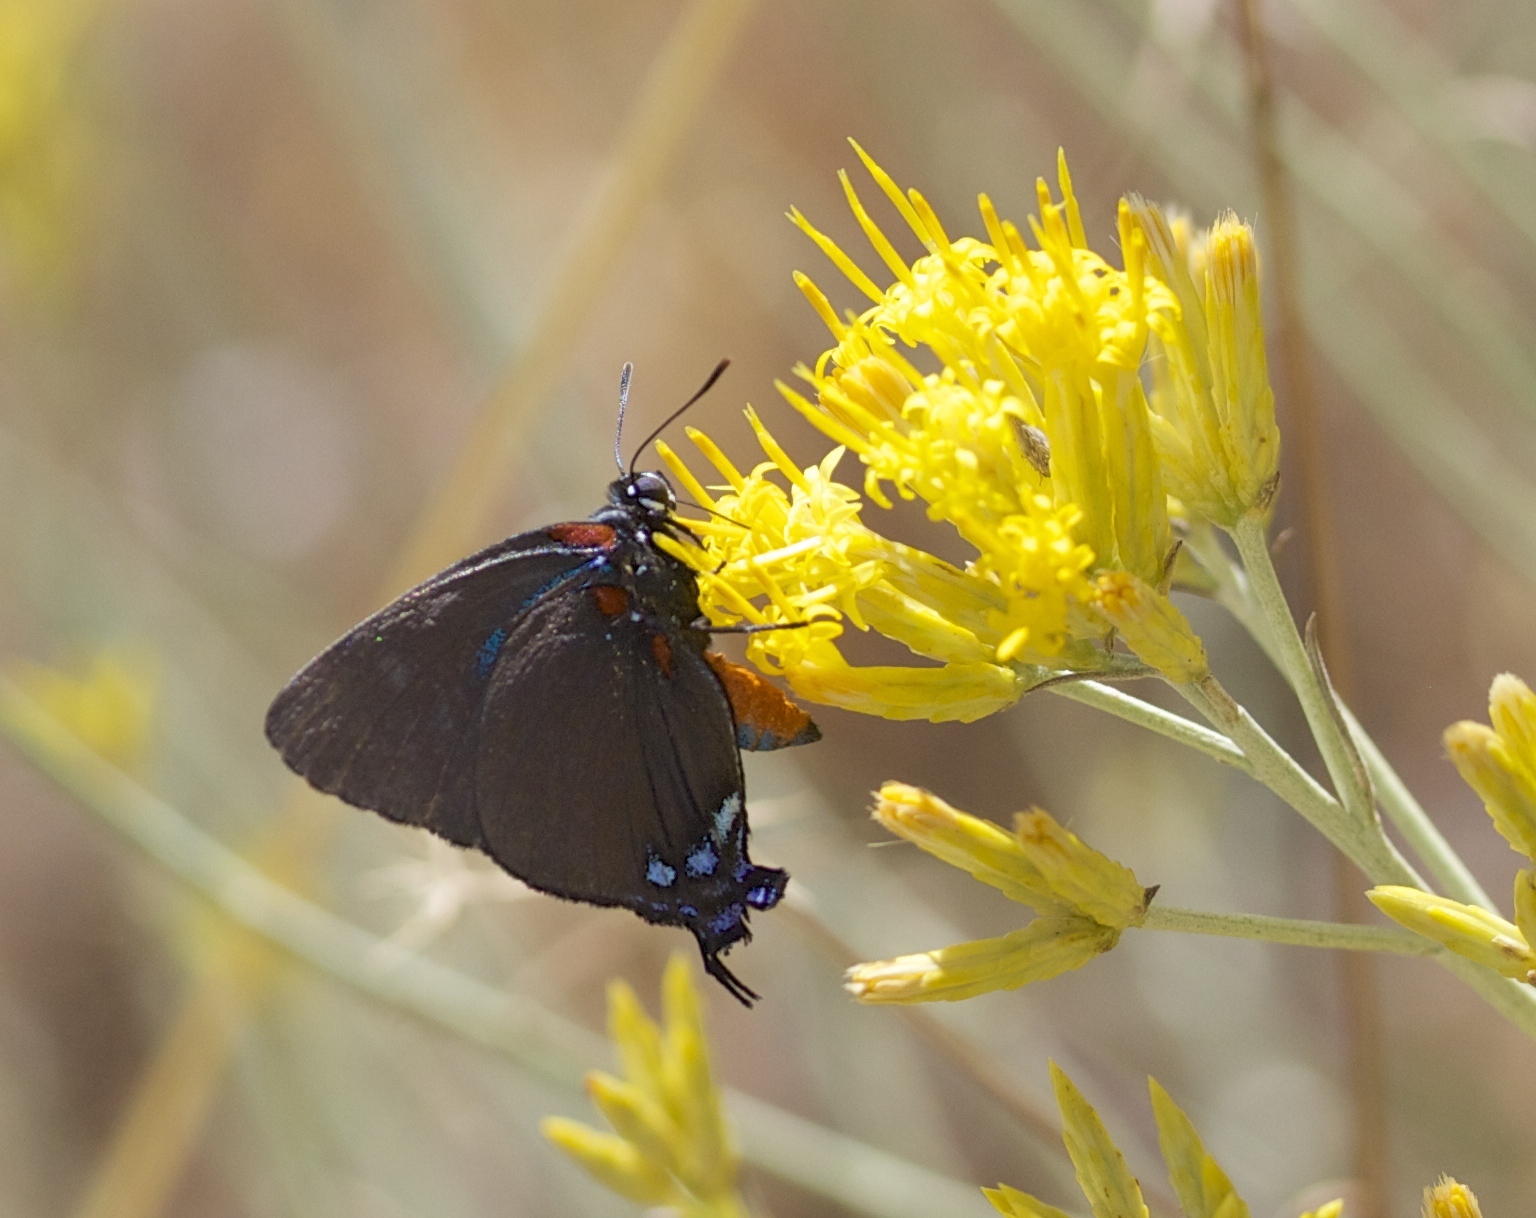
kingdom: Animalia
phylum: Arthropoda
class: Insecta
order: Lepidoptera
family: Lycaenidae
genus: Atlides
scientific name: Atlides halesus
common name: Great purple hairstreak
